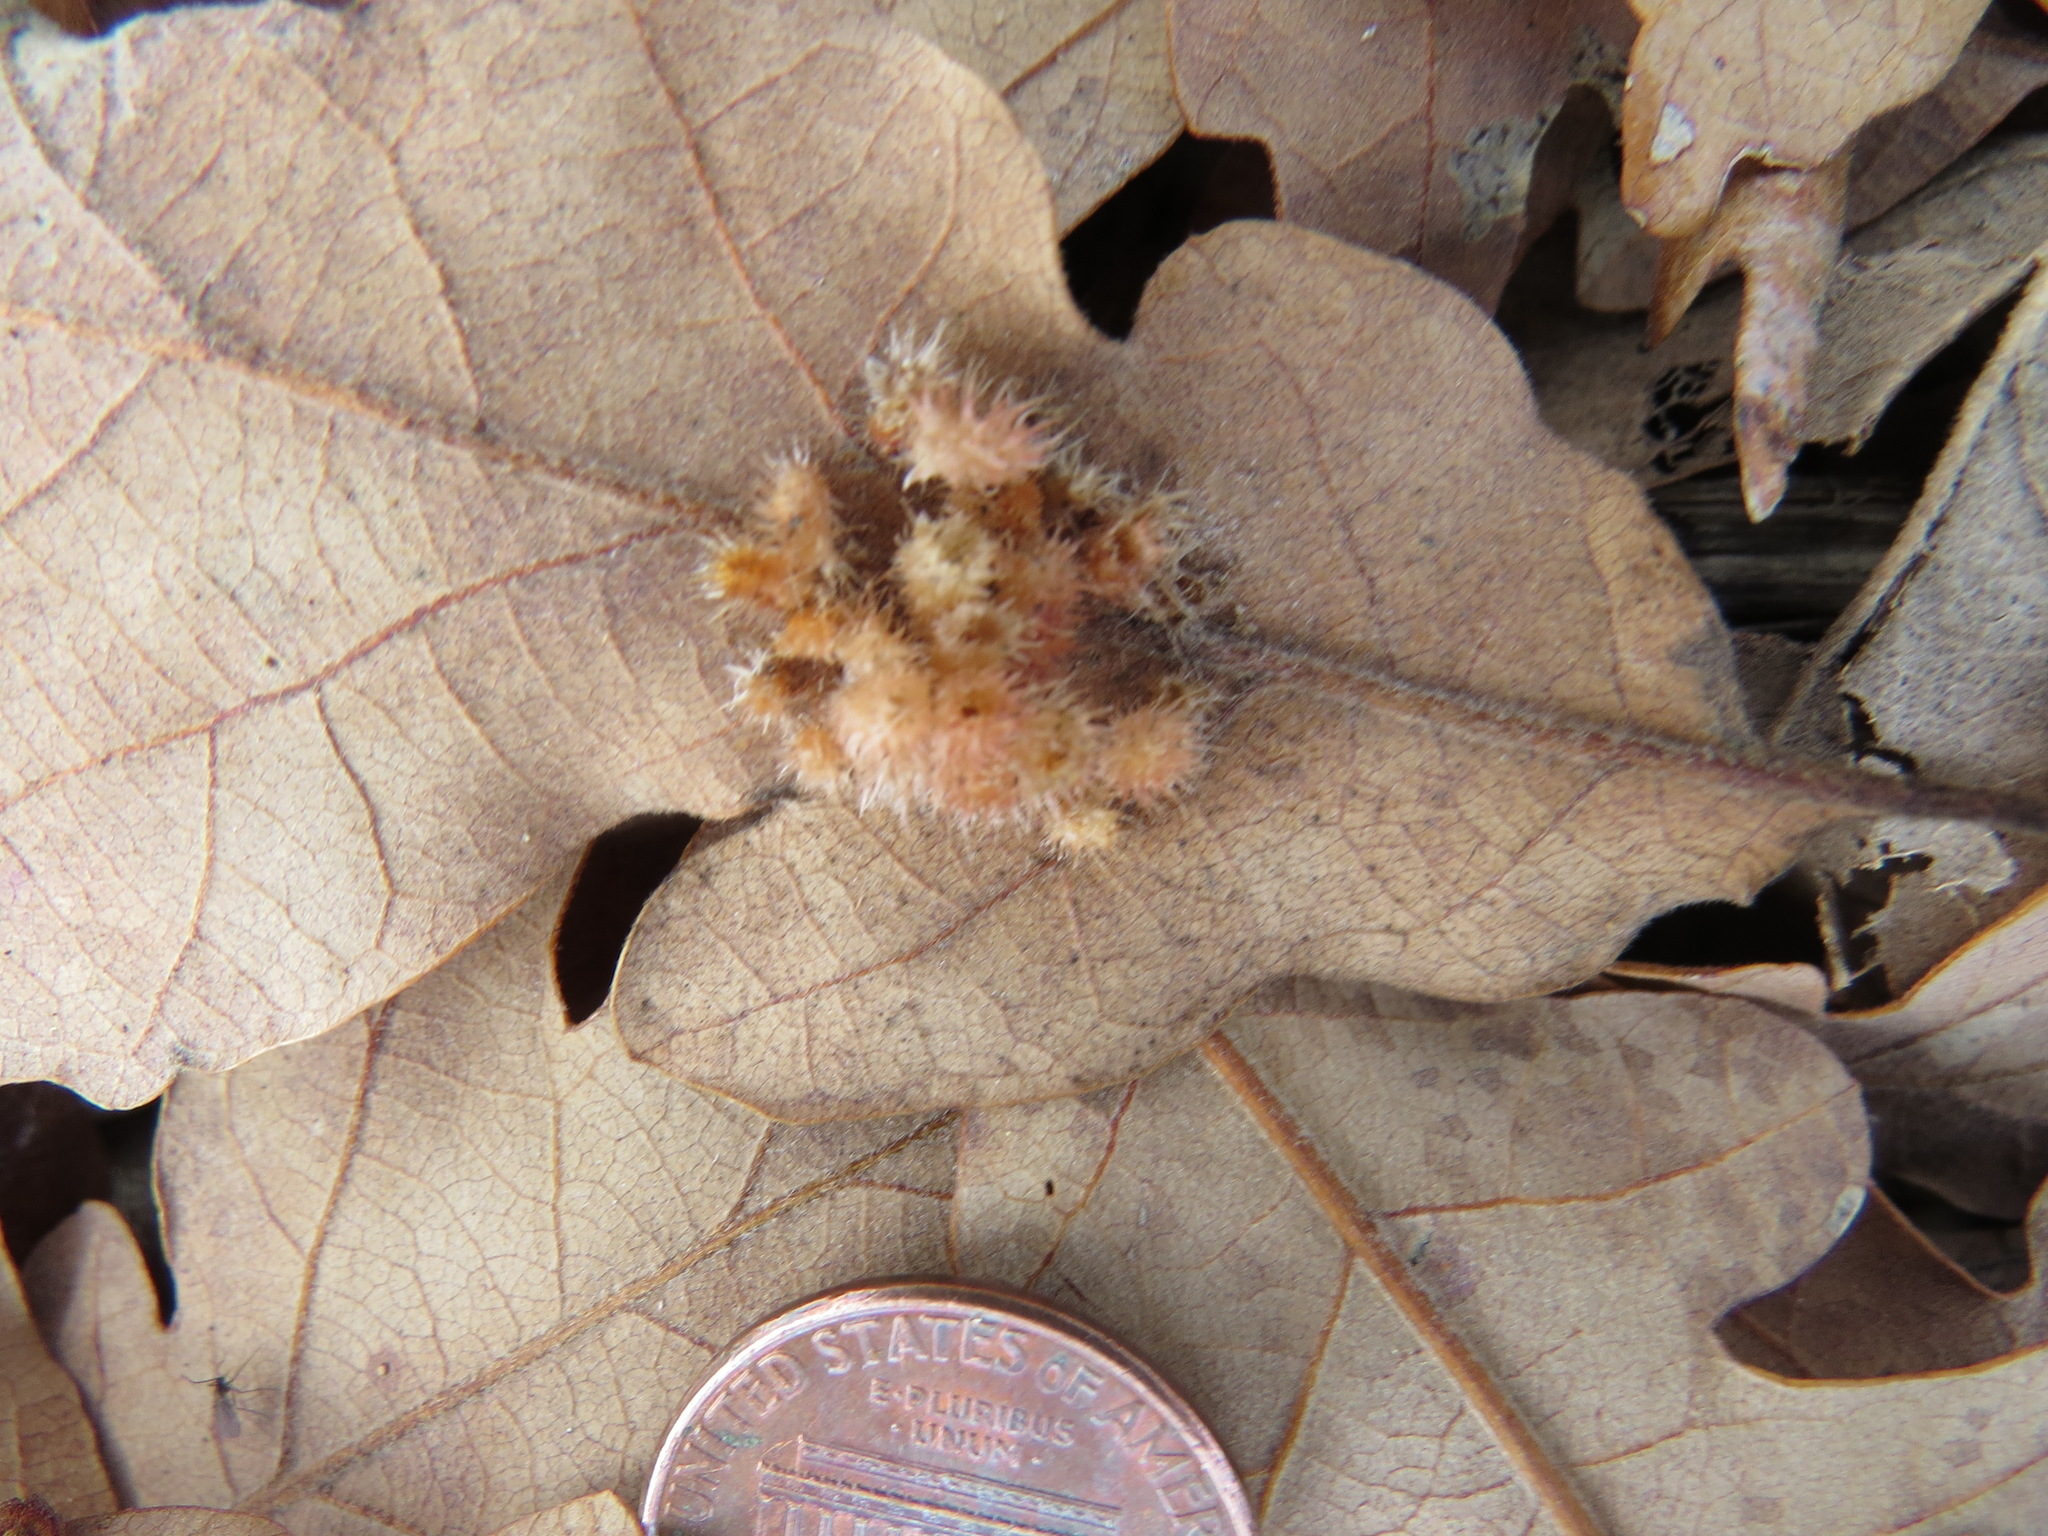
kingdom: Animalia
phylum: Arthropoda
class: Insecta
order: Hymenoptera
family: Cynipidae
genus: Andricus
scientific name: Andricus
